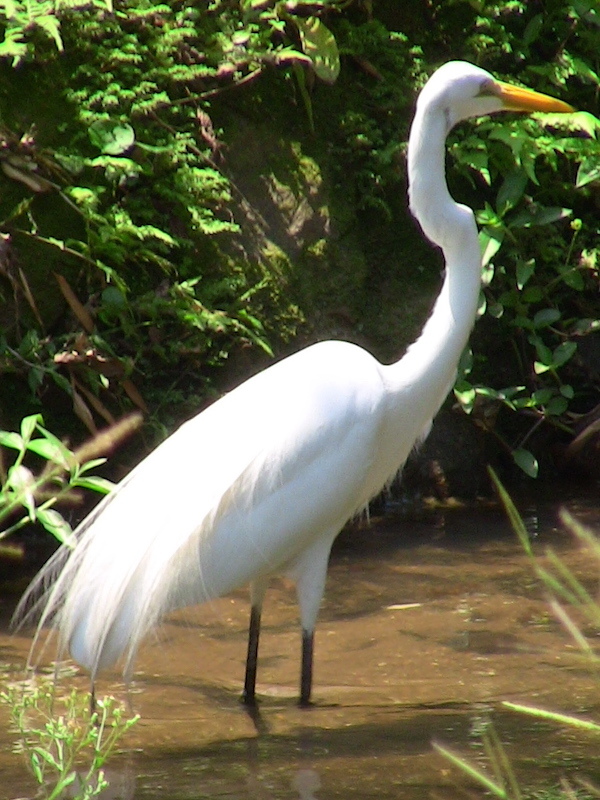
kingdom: Animalia
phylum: Chordata
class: Aves
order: Pelecaniformes
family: Ardeidae
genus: Ardea
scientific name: Ardea alba
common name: Great egret
